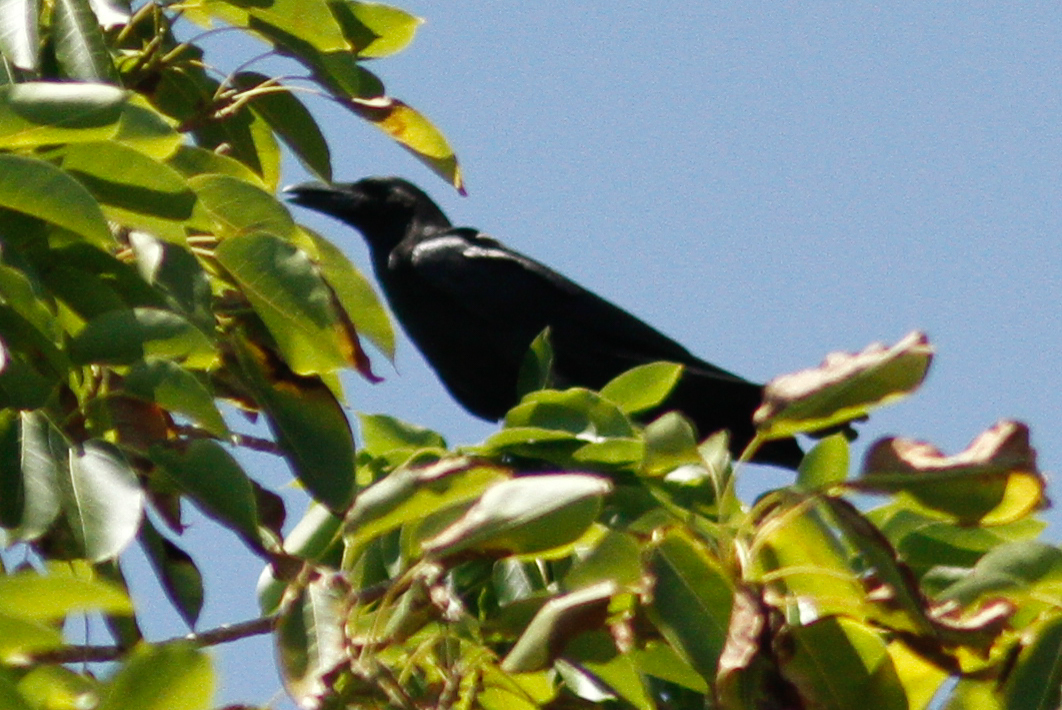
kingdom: Animalia
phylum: Chordata
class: Aves
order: Passeriformes
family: Corvidae
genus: Corvus
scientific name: Corvus macrorhynchos
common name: Large-billed crow
